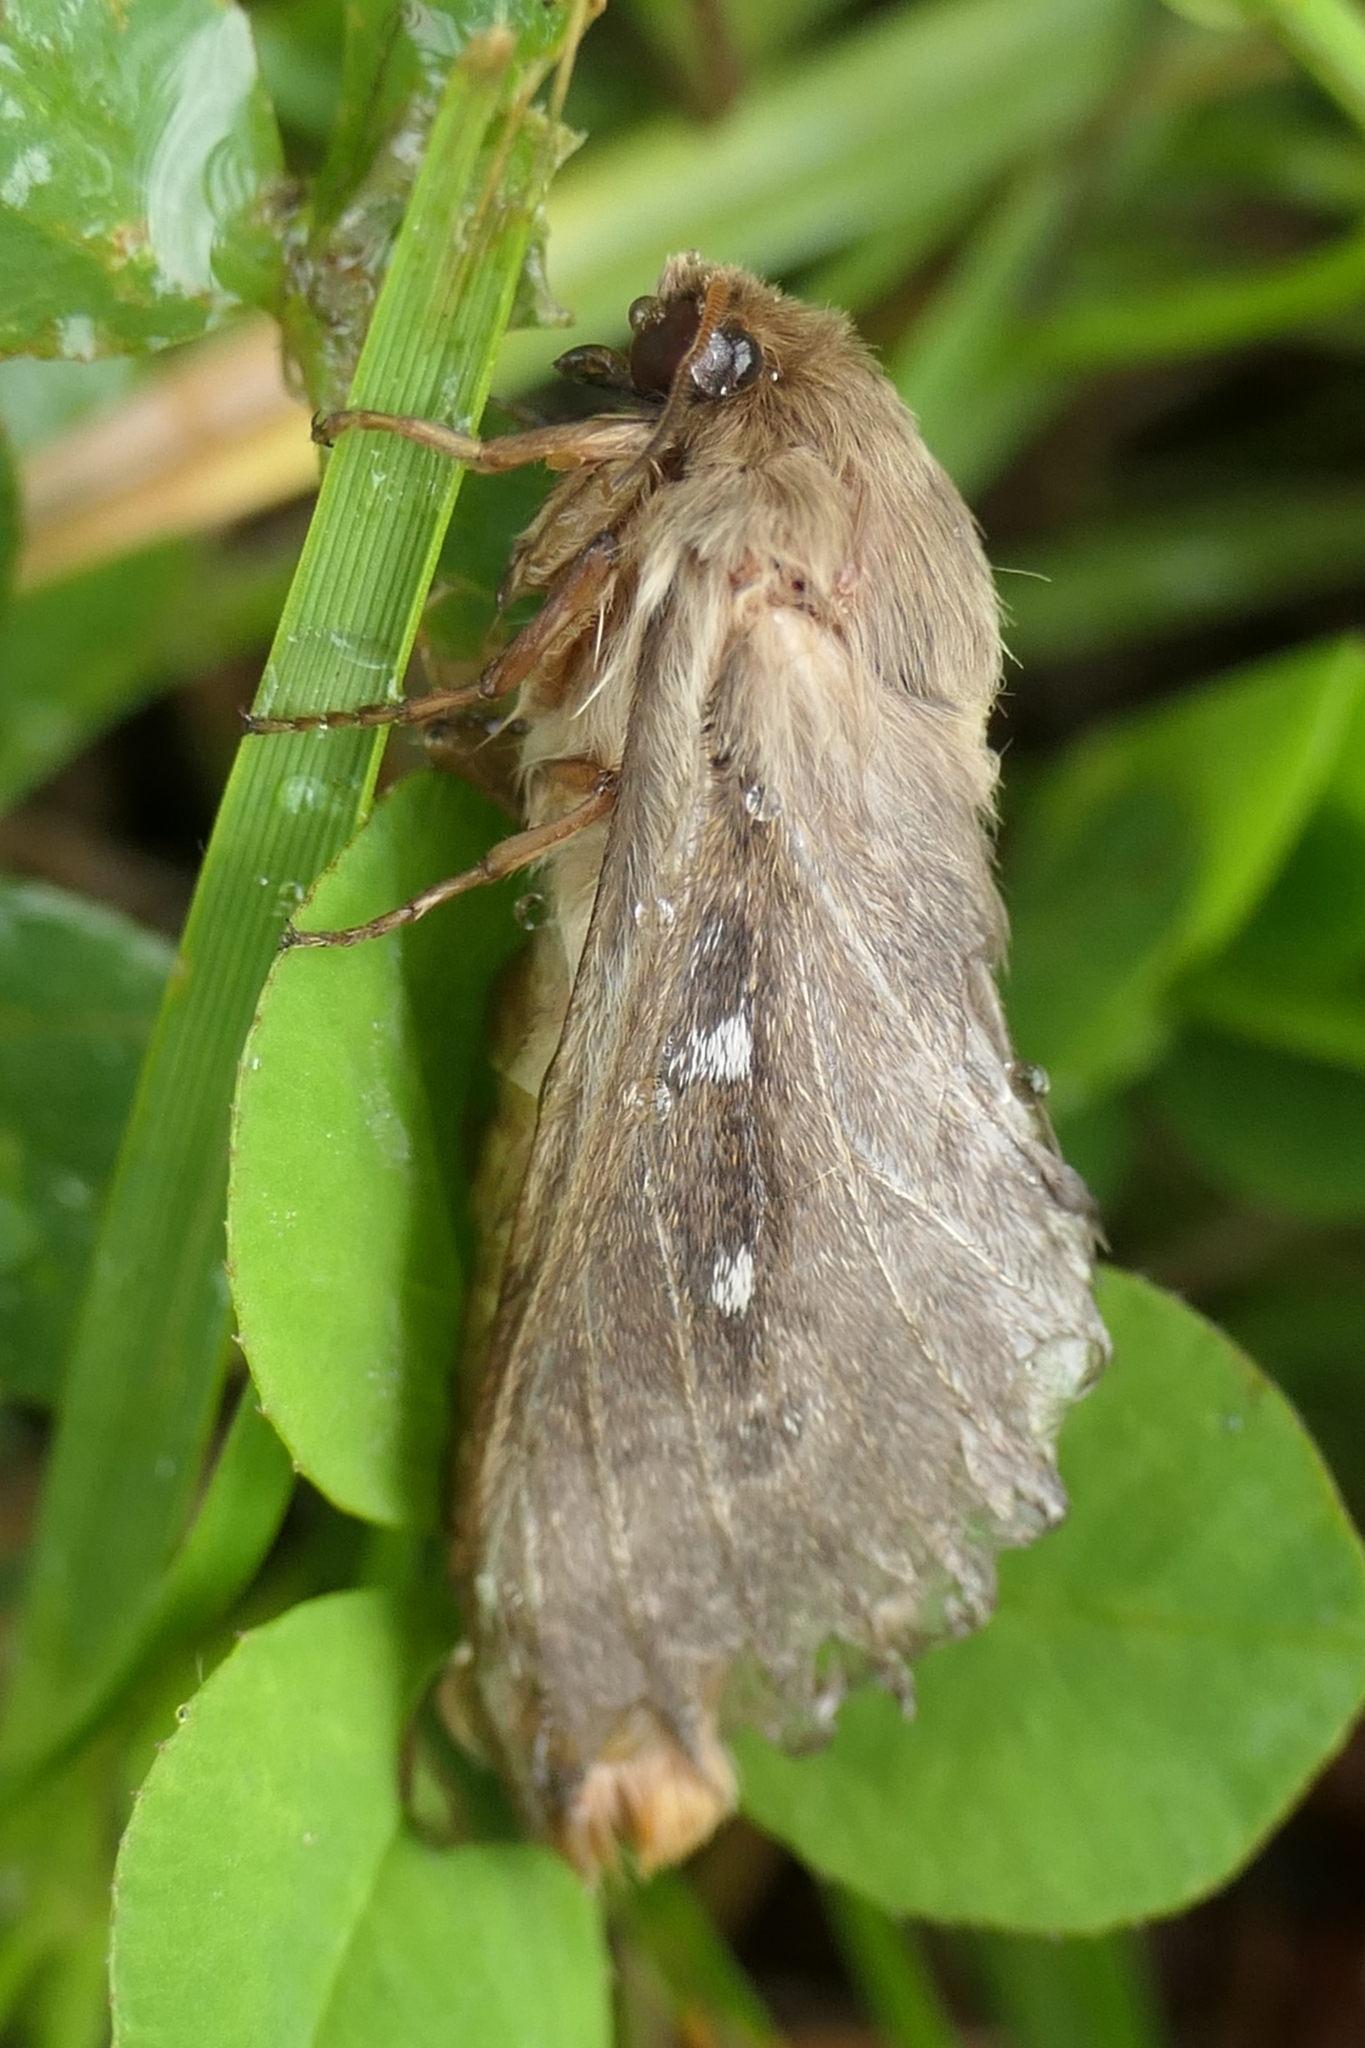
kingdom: Animalia
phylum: Arthropoda
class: Insecta
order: Lepidoptera
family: Hepialidae
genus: Wiseana
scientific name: Wiseana copularis
